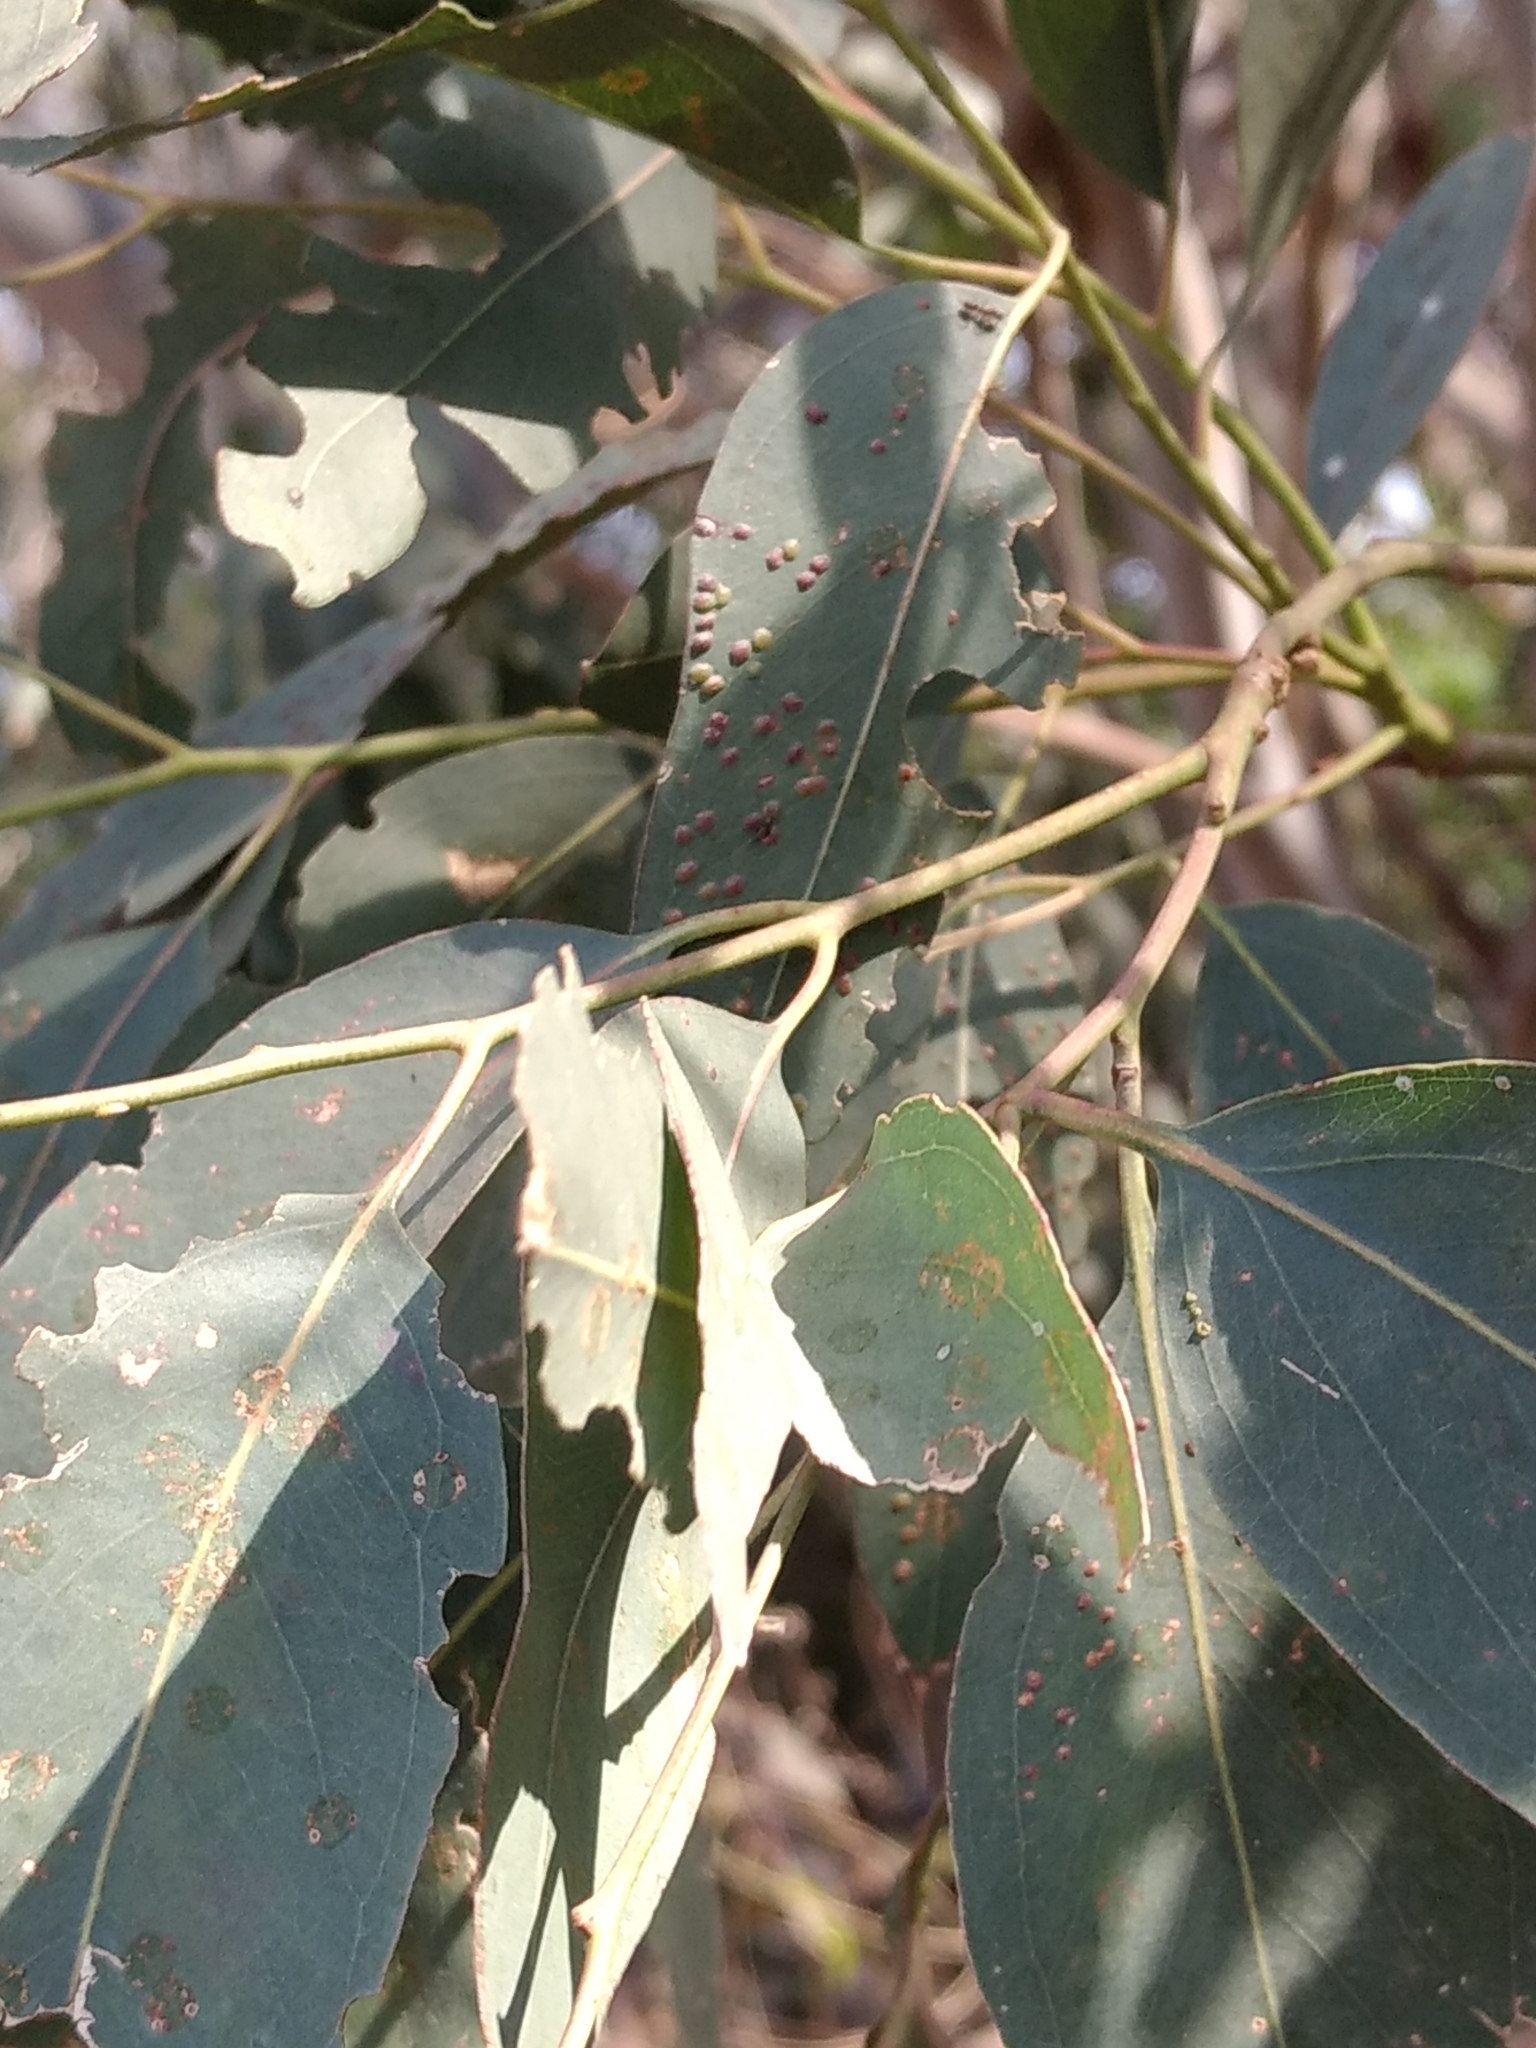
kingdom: Animalia
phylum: Arthropoda
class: Insecta
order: Hymenoptera
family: Eulophidae
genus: Ophelimus
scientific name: Ophelimus maskelli
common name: Gall wasp
